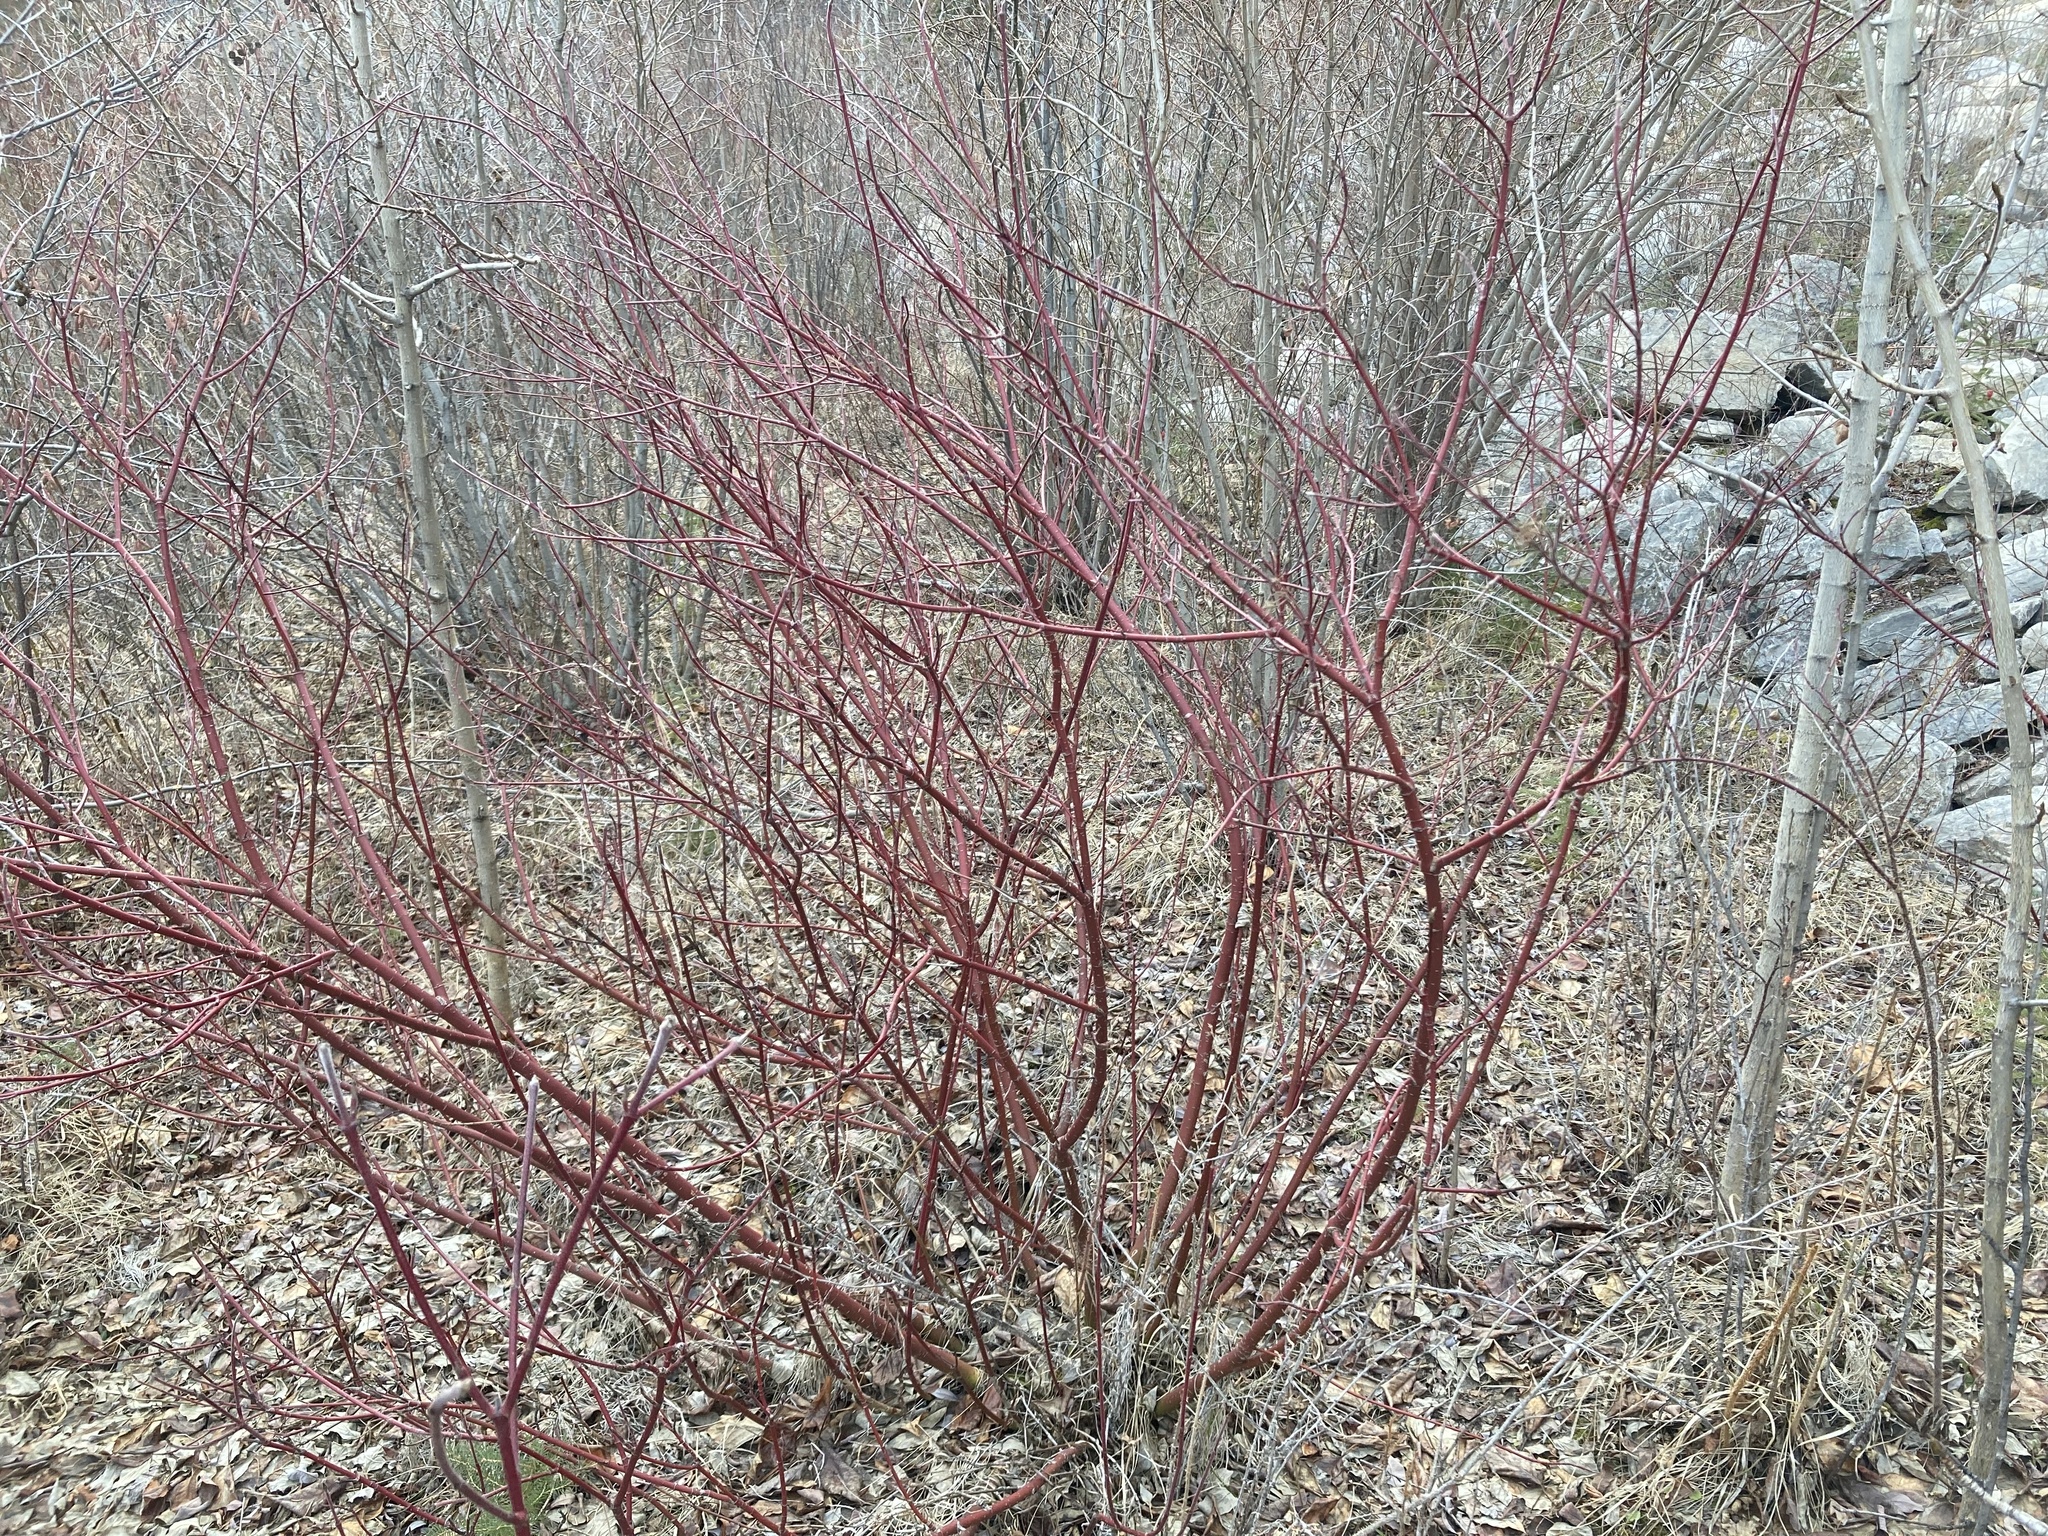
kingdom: Plantae
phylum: Tracheophyta
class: Magnoliopsida
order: Cornales
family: Cornaceae
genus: Cornus
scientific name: Cornus sericea
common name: Red-osier dogwood
